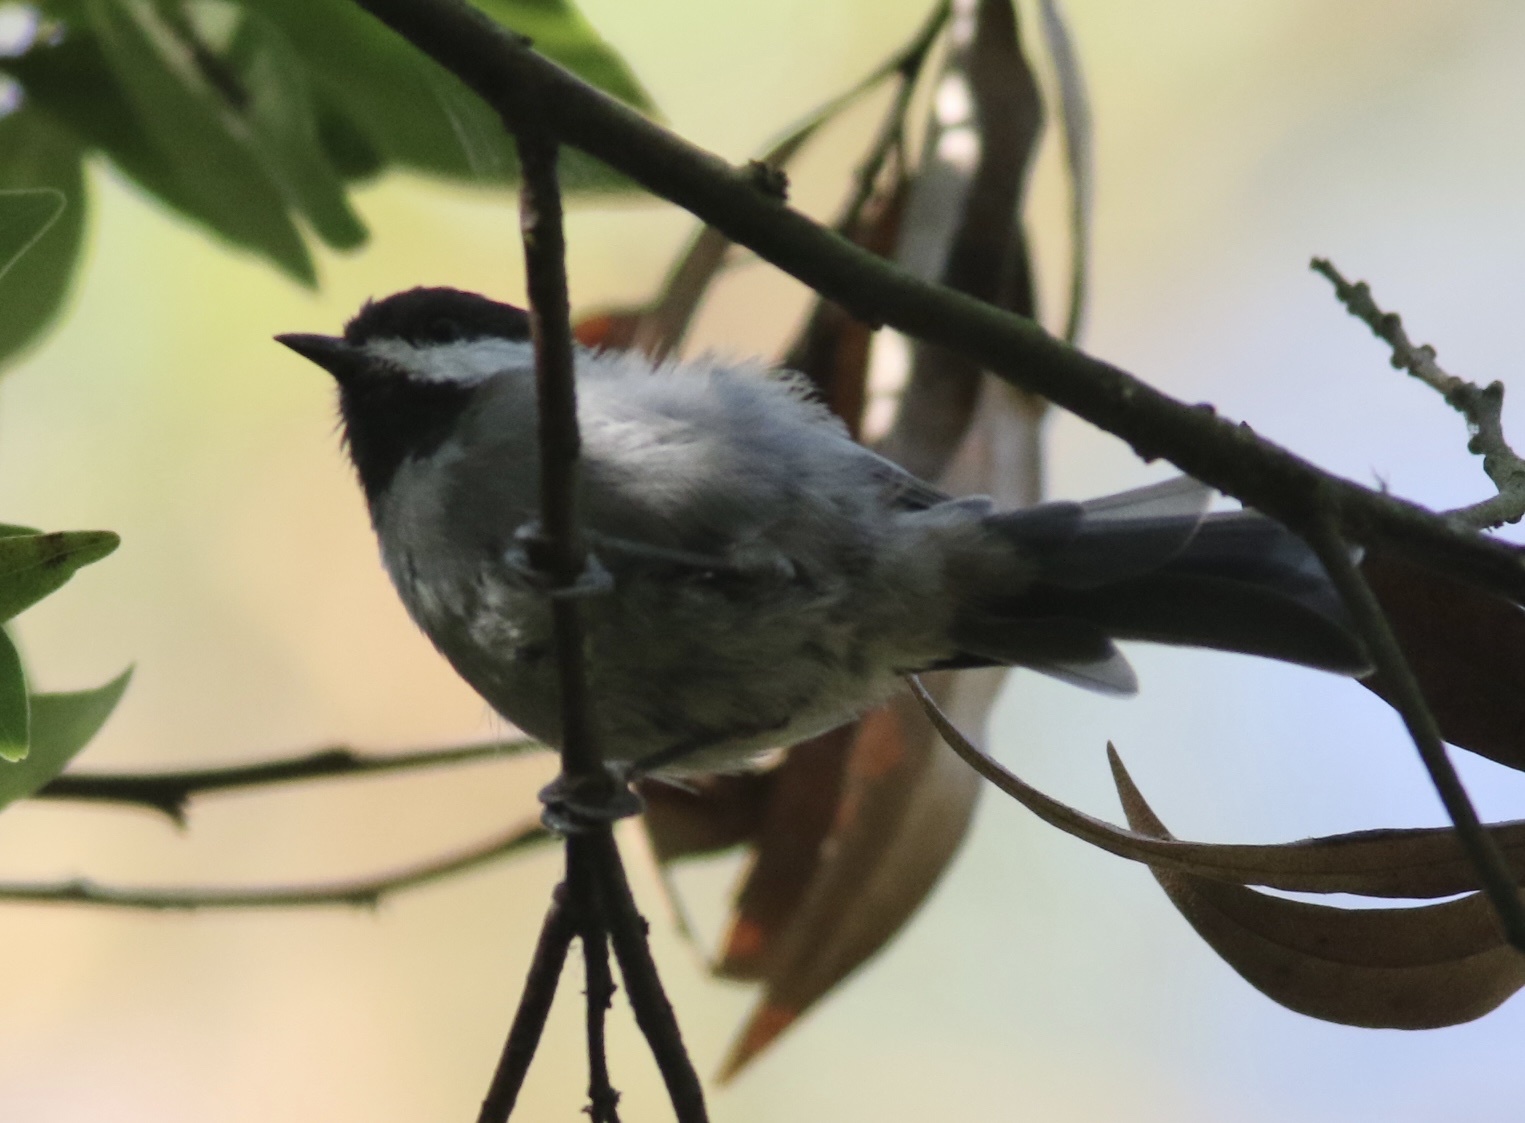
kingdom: Animalia
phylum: Chordata
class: Aves
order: Passeriformes
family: Paridae
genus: Poecile
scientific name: Poecile rufescens
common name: Chestnut-backed chickadee
